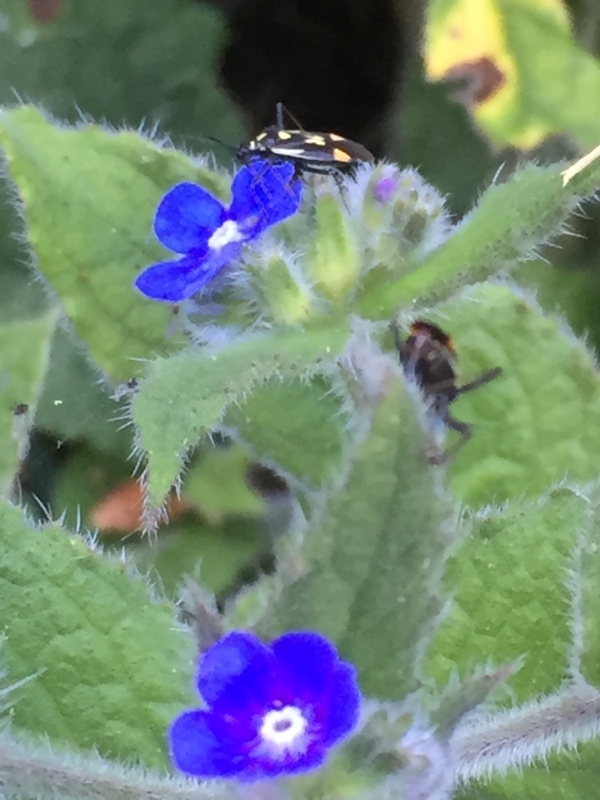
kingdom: Animalia
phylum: Arthropoda
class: Insecta
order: Hemiptera
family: Miridae
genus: Grypocoris
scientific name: Grypocoris stysi
